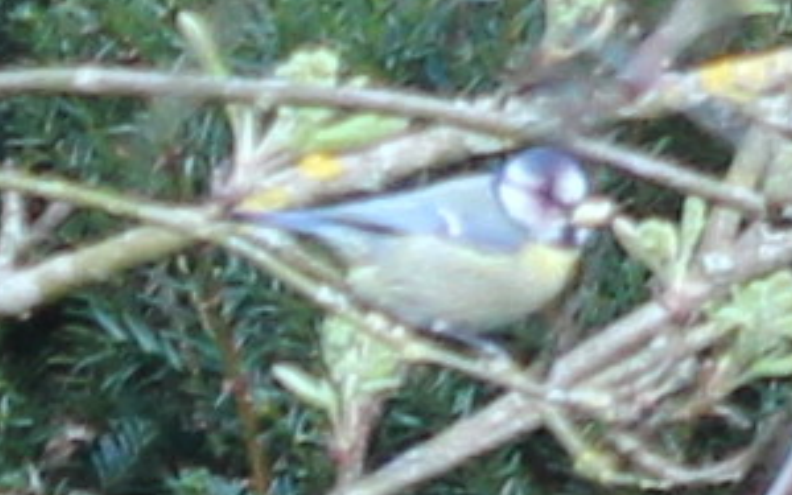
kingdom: Animalia
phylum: Chordata
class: Aves
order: Passeriformes
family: Paridae
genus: Cyanistes
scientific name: Cyanistes caeruleus
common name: Eurasian blue tit
